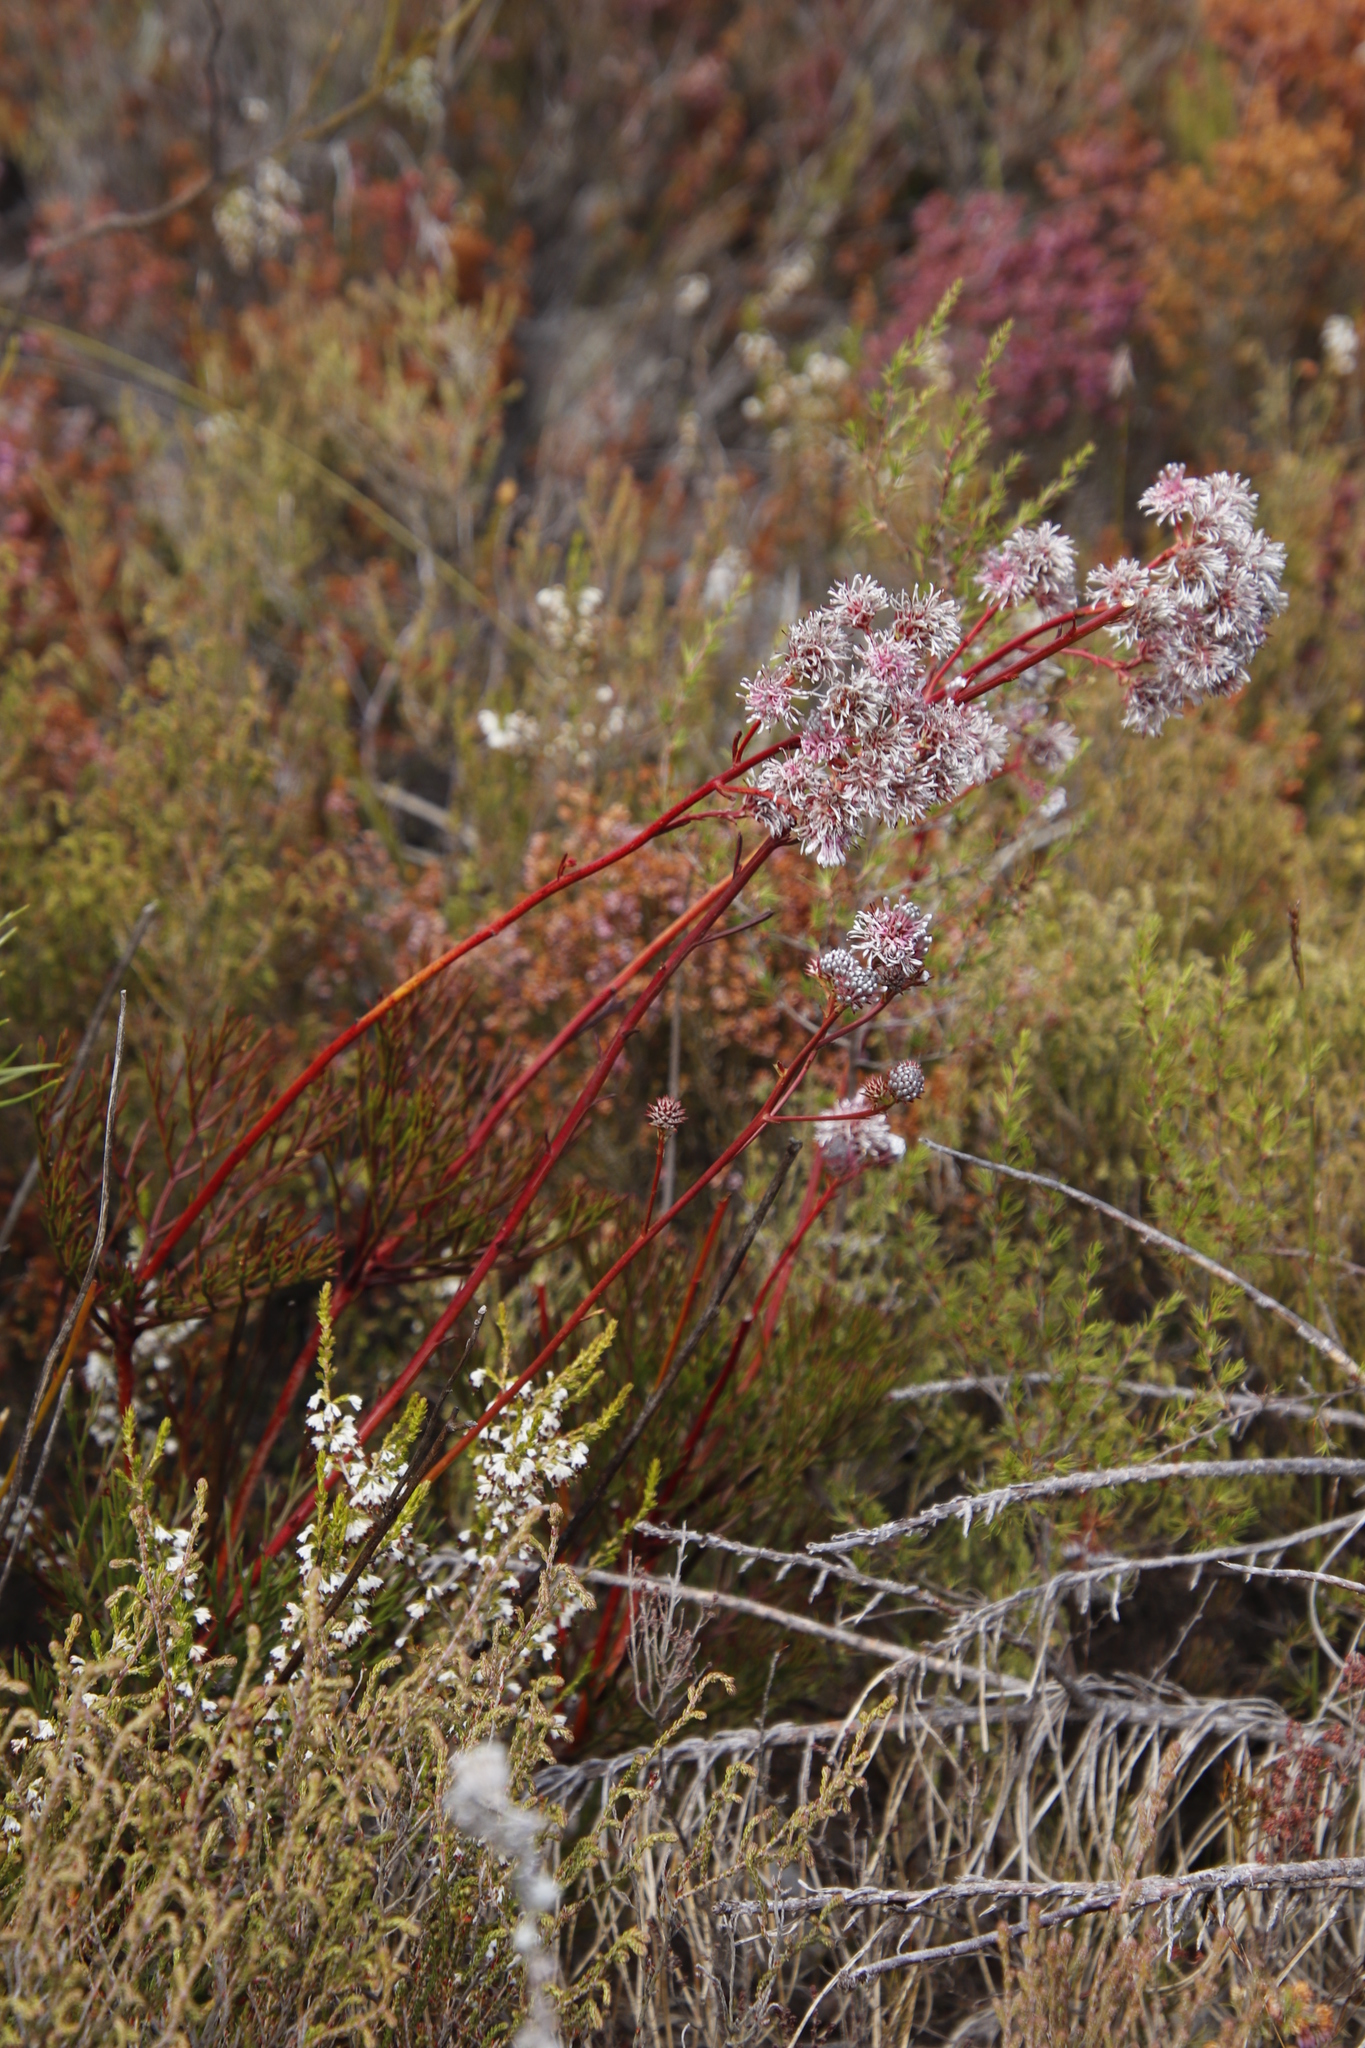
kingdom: Plantae
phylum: Tracheophyta
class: Magnoliopsida
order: Proteales
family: Proteaceae
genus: Serruria
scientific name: Serruria elongata
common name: Long-stalk spiderhead
